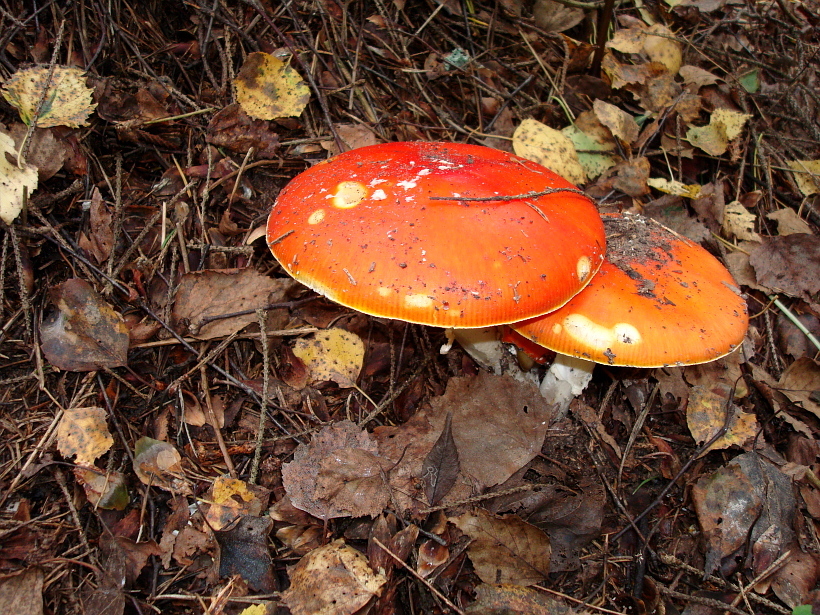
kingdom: Fungi
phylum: Basidiomycota
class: Agaricomycetes
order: Agaricales
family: Amanitaceae
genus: Amanita
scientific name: Amanita muscaria
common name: Fly agaric
